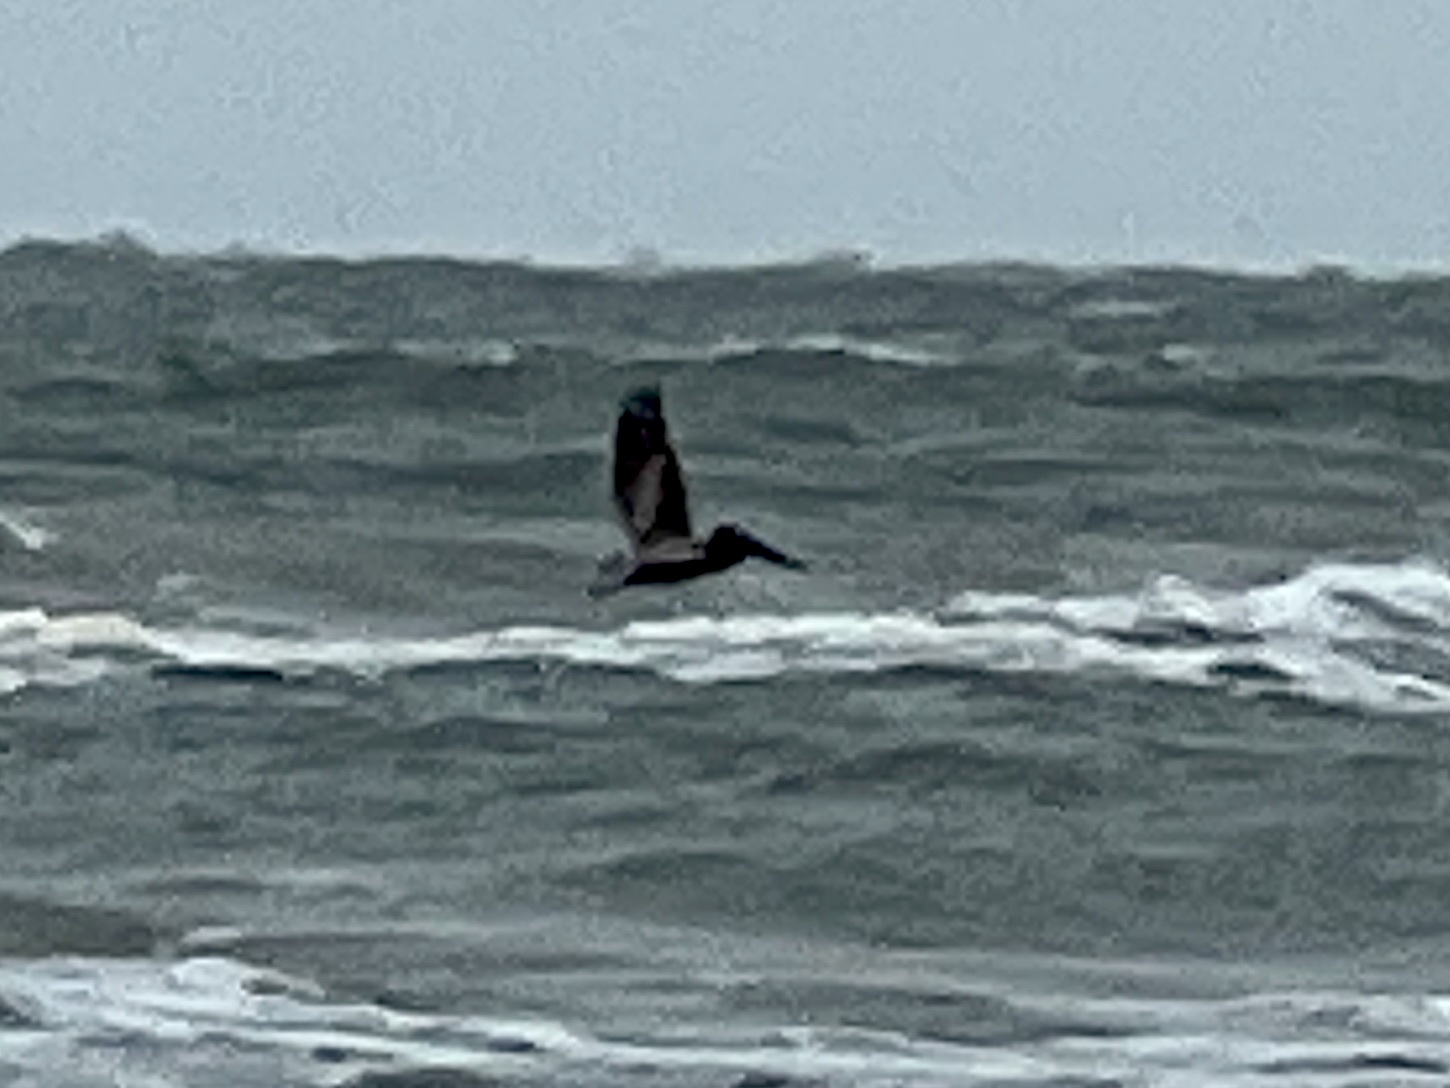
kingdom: Animalia
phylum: Chordata
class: Aves
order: Pelecaniformes
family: Pelecanidae
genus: Pelecanus
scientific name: Pelecanus occidentalis
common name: Brown pelican
